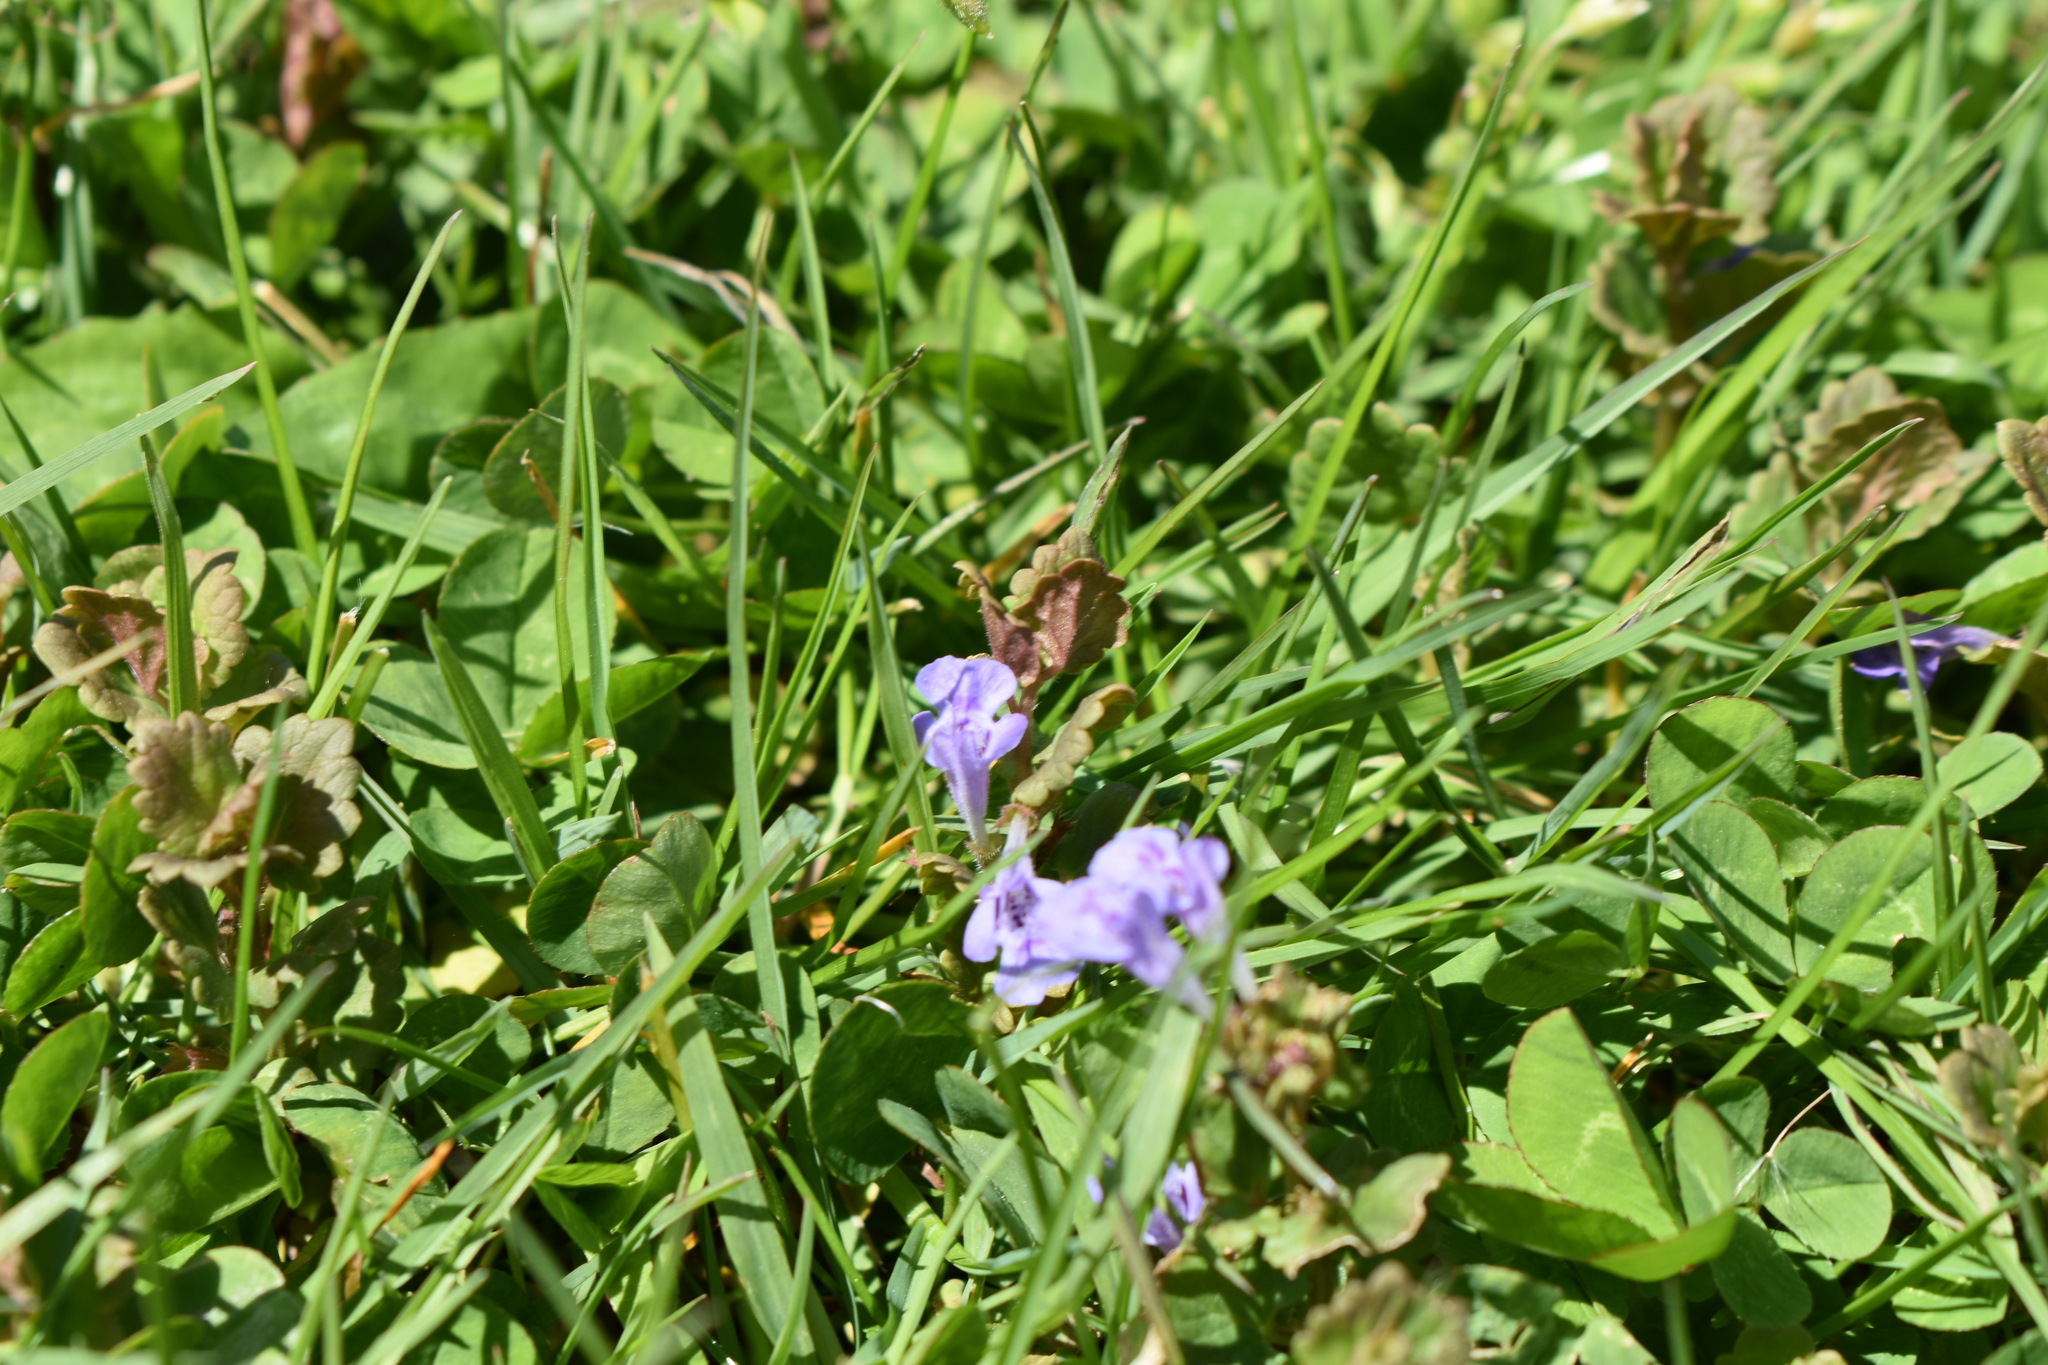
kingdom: Plantae
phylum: Tracheophyta
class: Magnoliopsida
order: Lamiales
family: Lamiaceae
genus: Glechoma
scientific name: Glechoma hederacea
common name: Ground ivy
